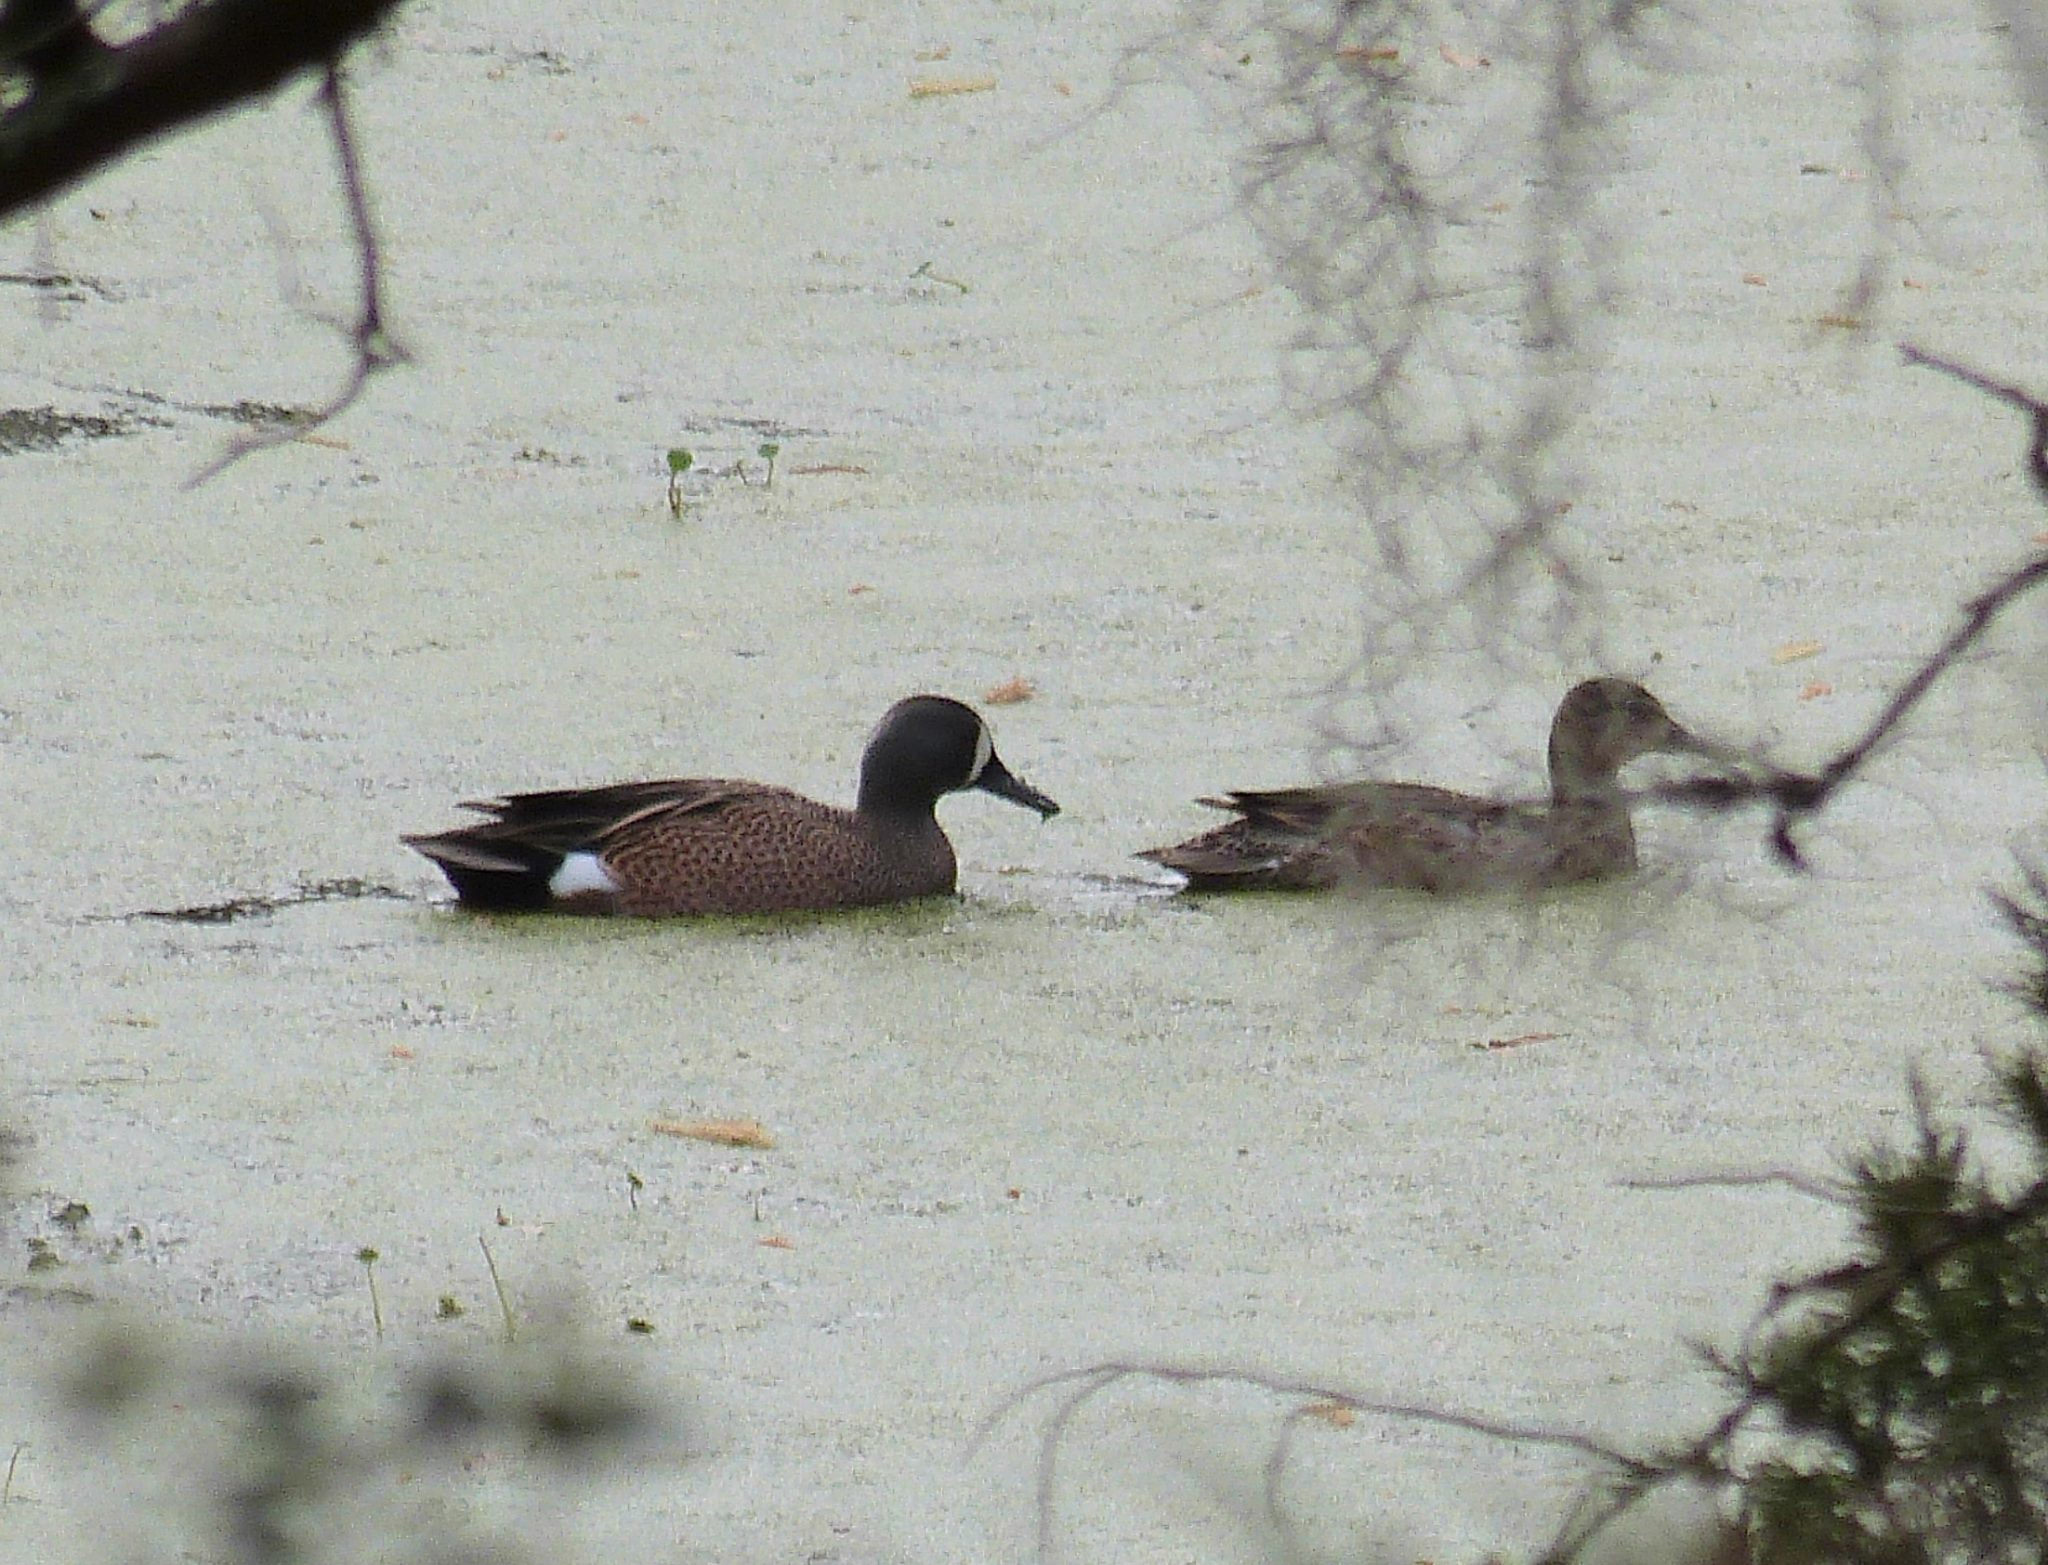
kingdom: Animalia
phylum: Chordata
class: Aves
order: Anseriformes
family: Anatidae
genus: Spatula
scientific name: Spatula discors
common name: Blue-winged teal
